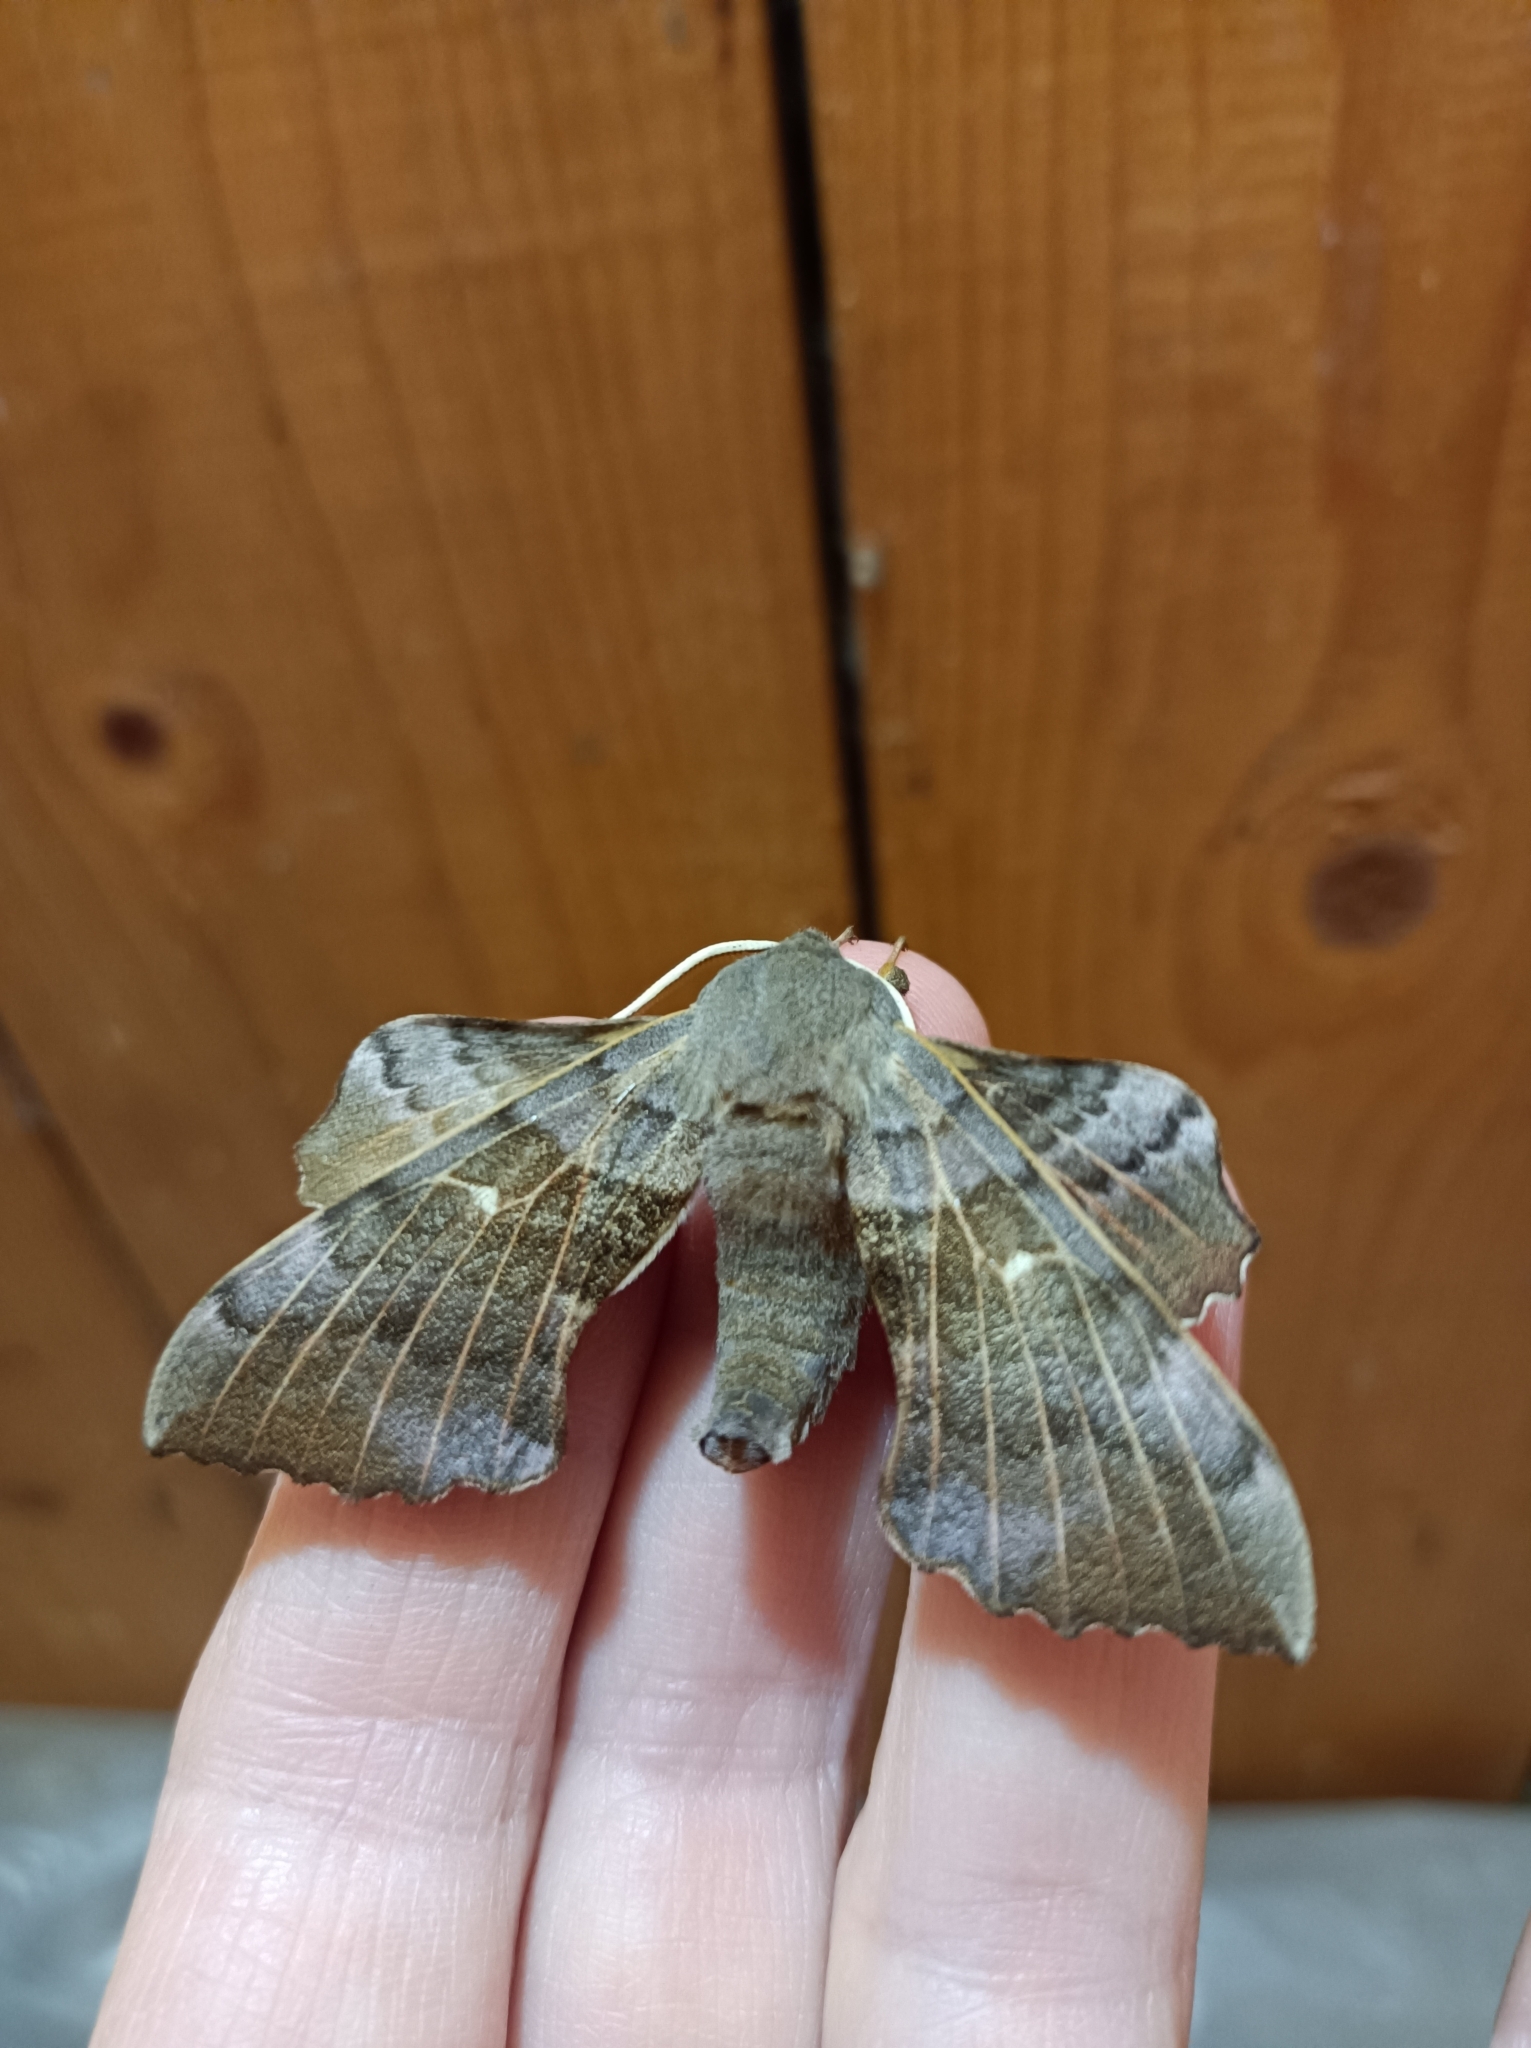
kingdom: Animalia
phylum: Arthropoda
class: Insecta
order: Lepidoptera
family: Sphingidae
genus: Laothoe
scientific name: Laothoe populi
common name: Poplar hawk-moth
